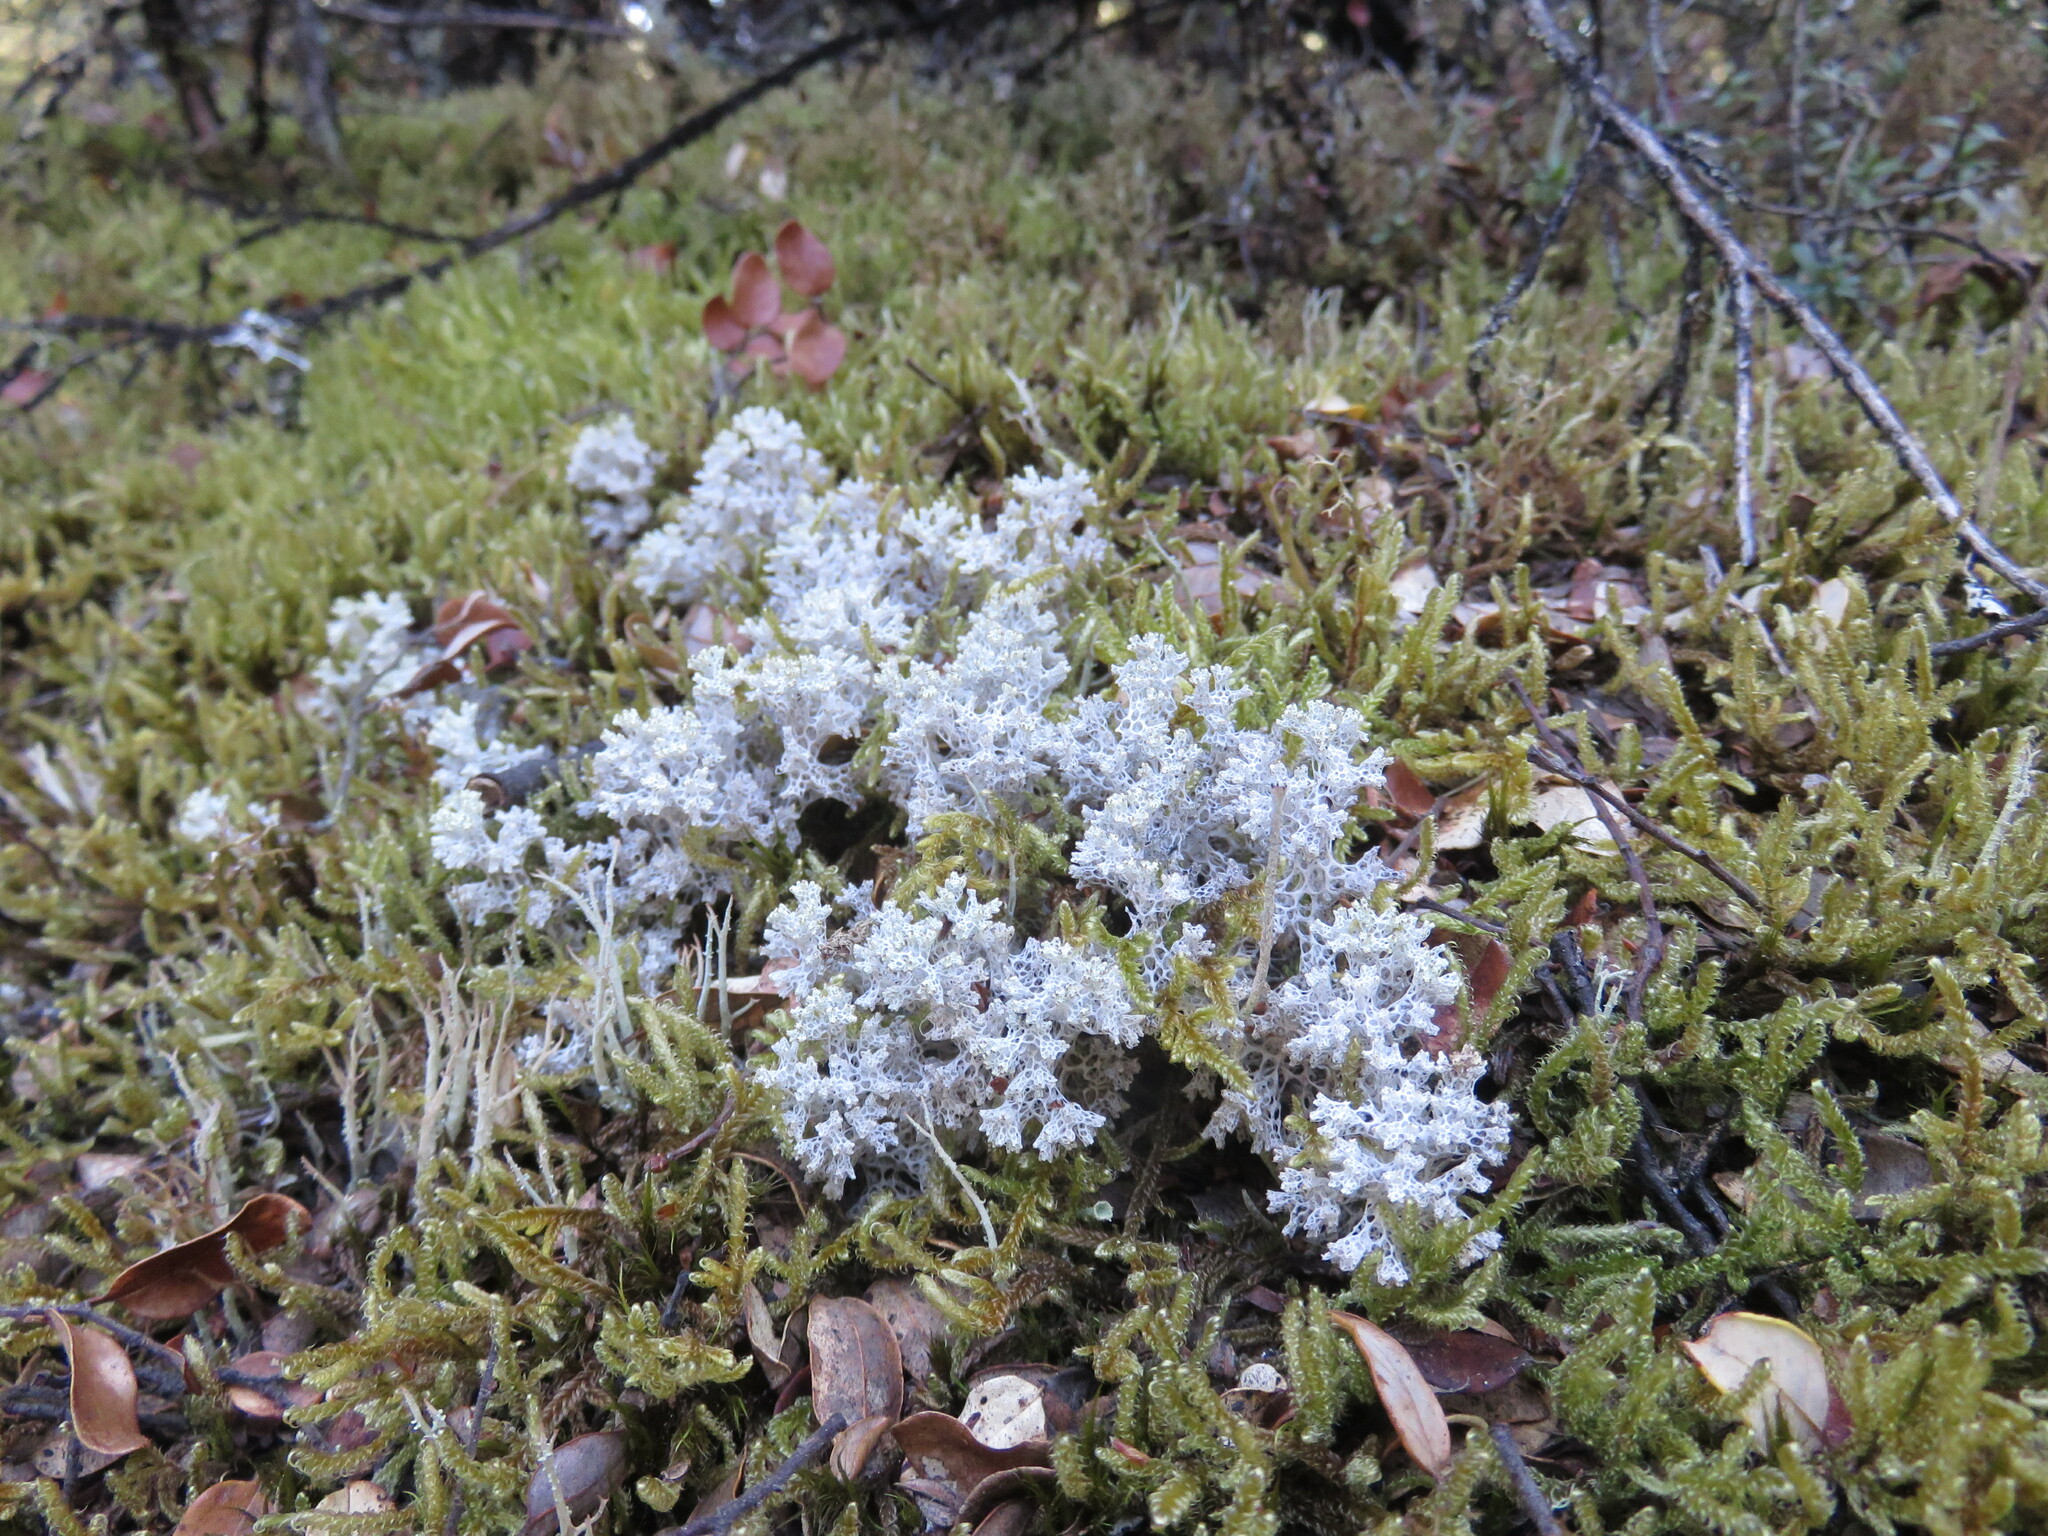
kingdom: Fungi
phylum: Ascomycota
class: Lecanoromycetes
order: Lecanorales
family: Cladoniaceae
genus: Pulchrocladia
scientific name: Pulchrocladia retipora
